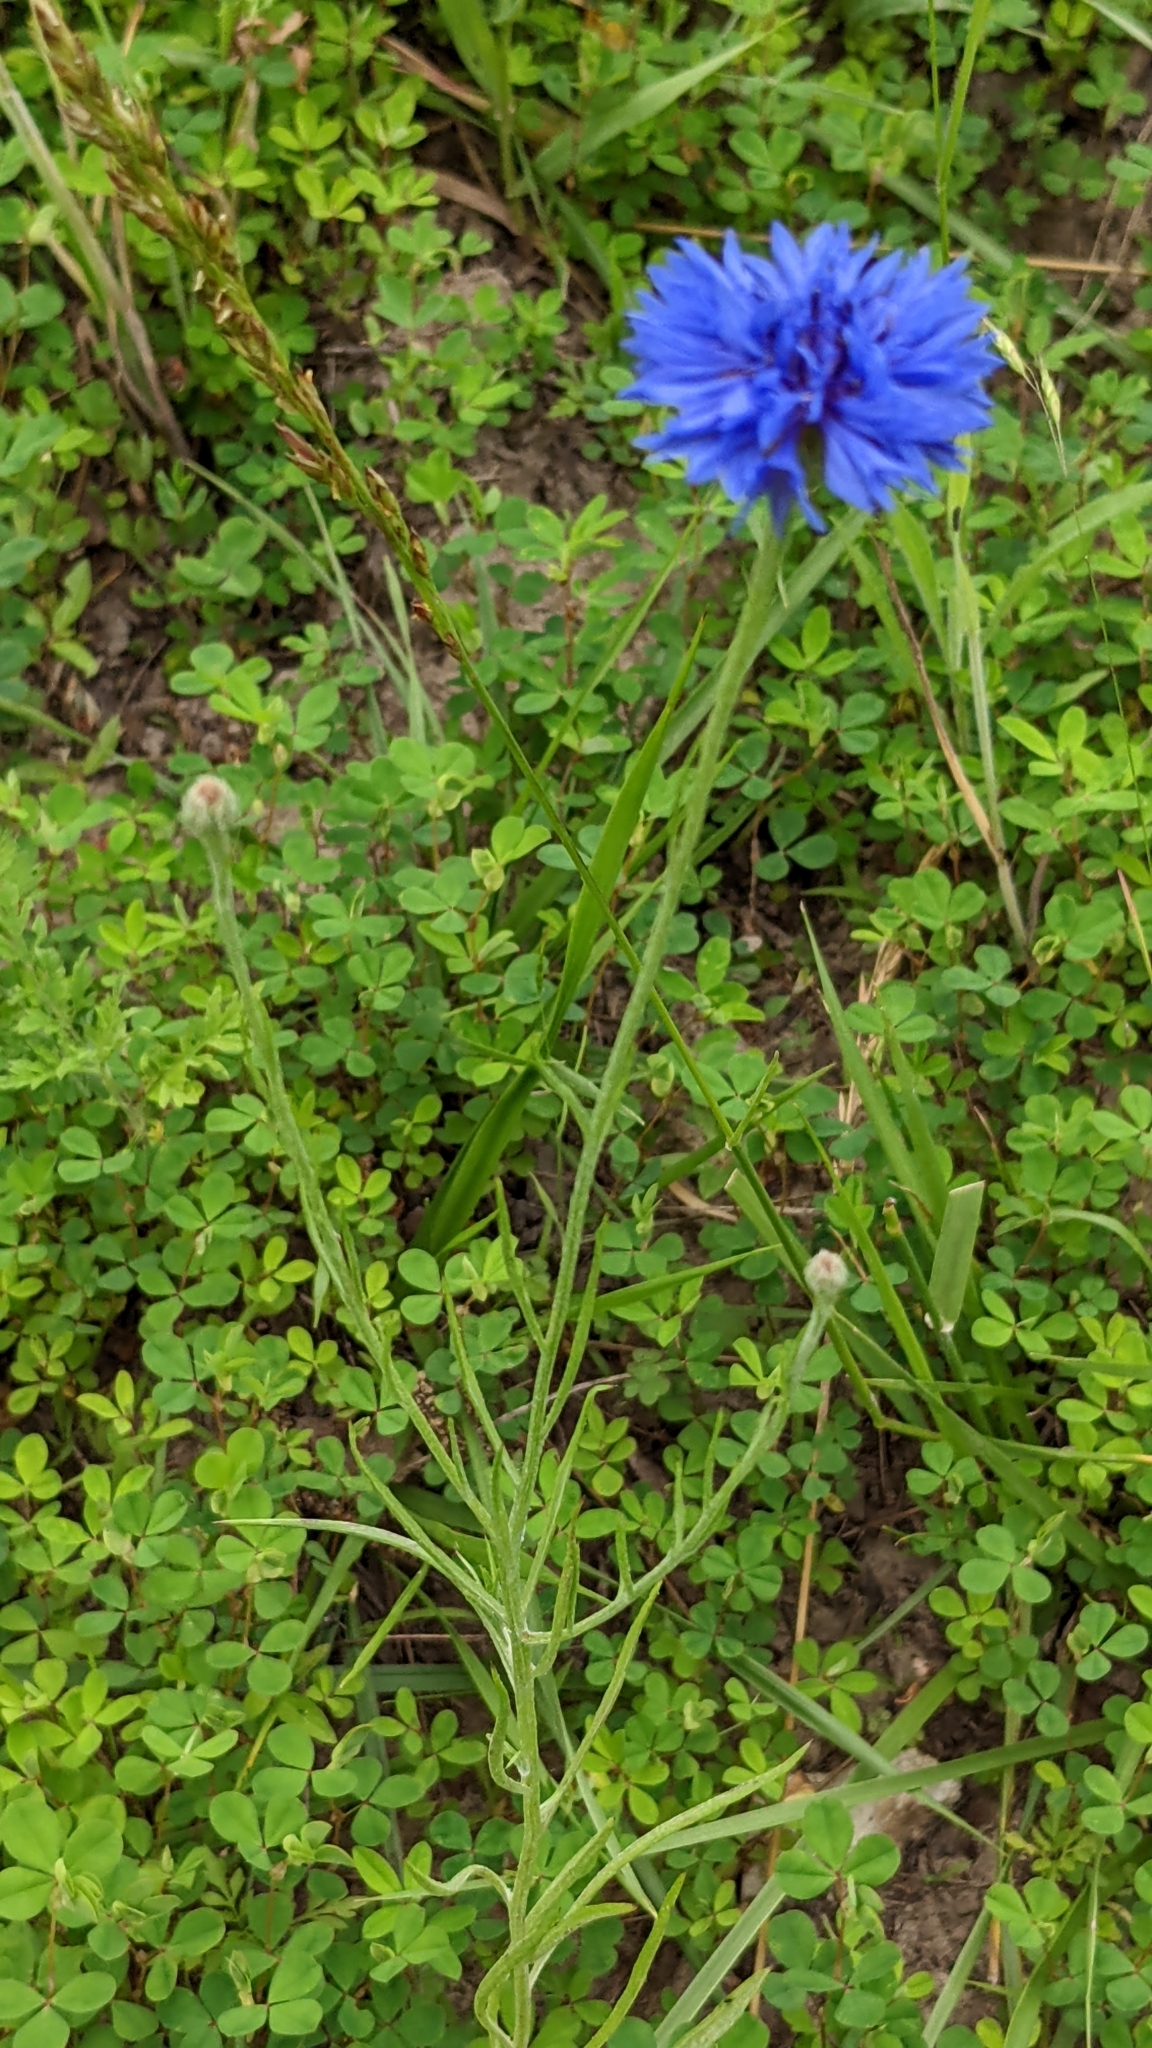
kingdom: Plantae
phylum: Tracheophyta
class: Magnoliopsida
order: Asterales
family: Asteraceae
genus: Centaurea
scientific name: Centaurea cyanus
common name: Cornflower
